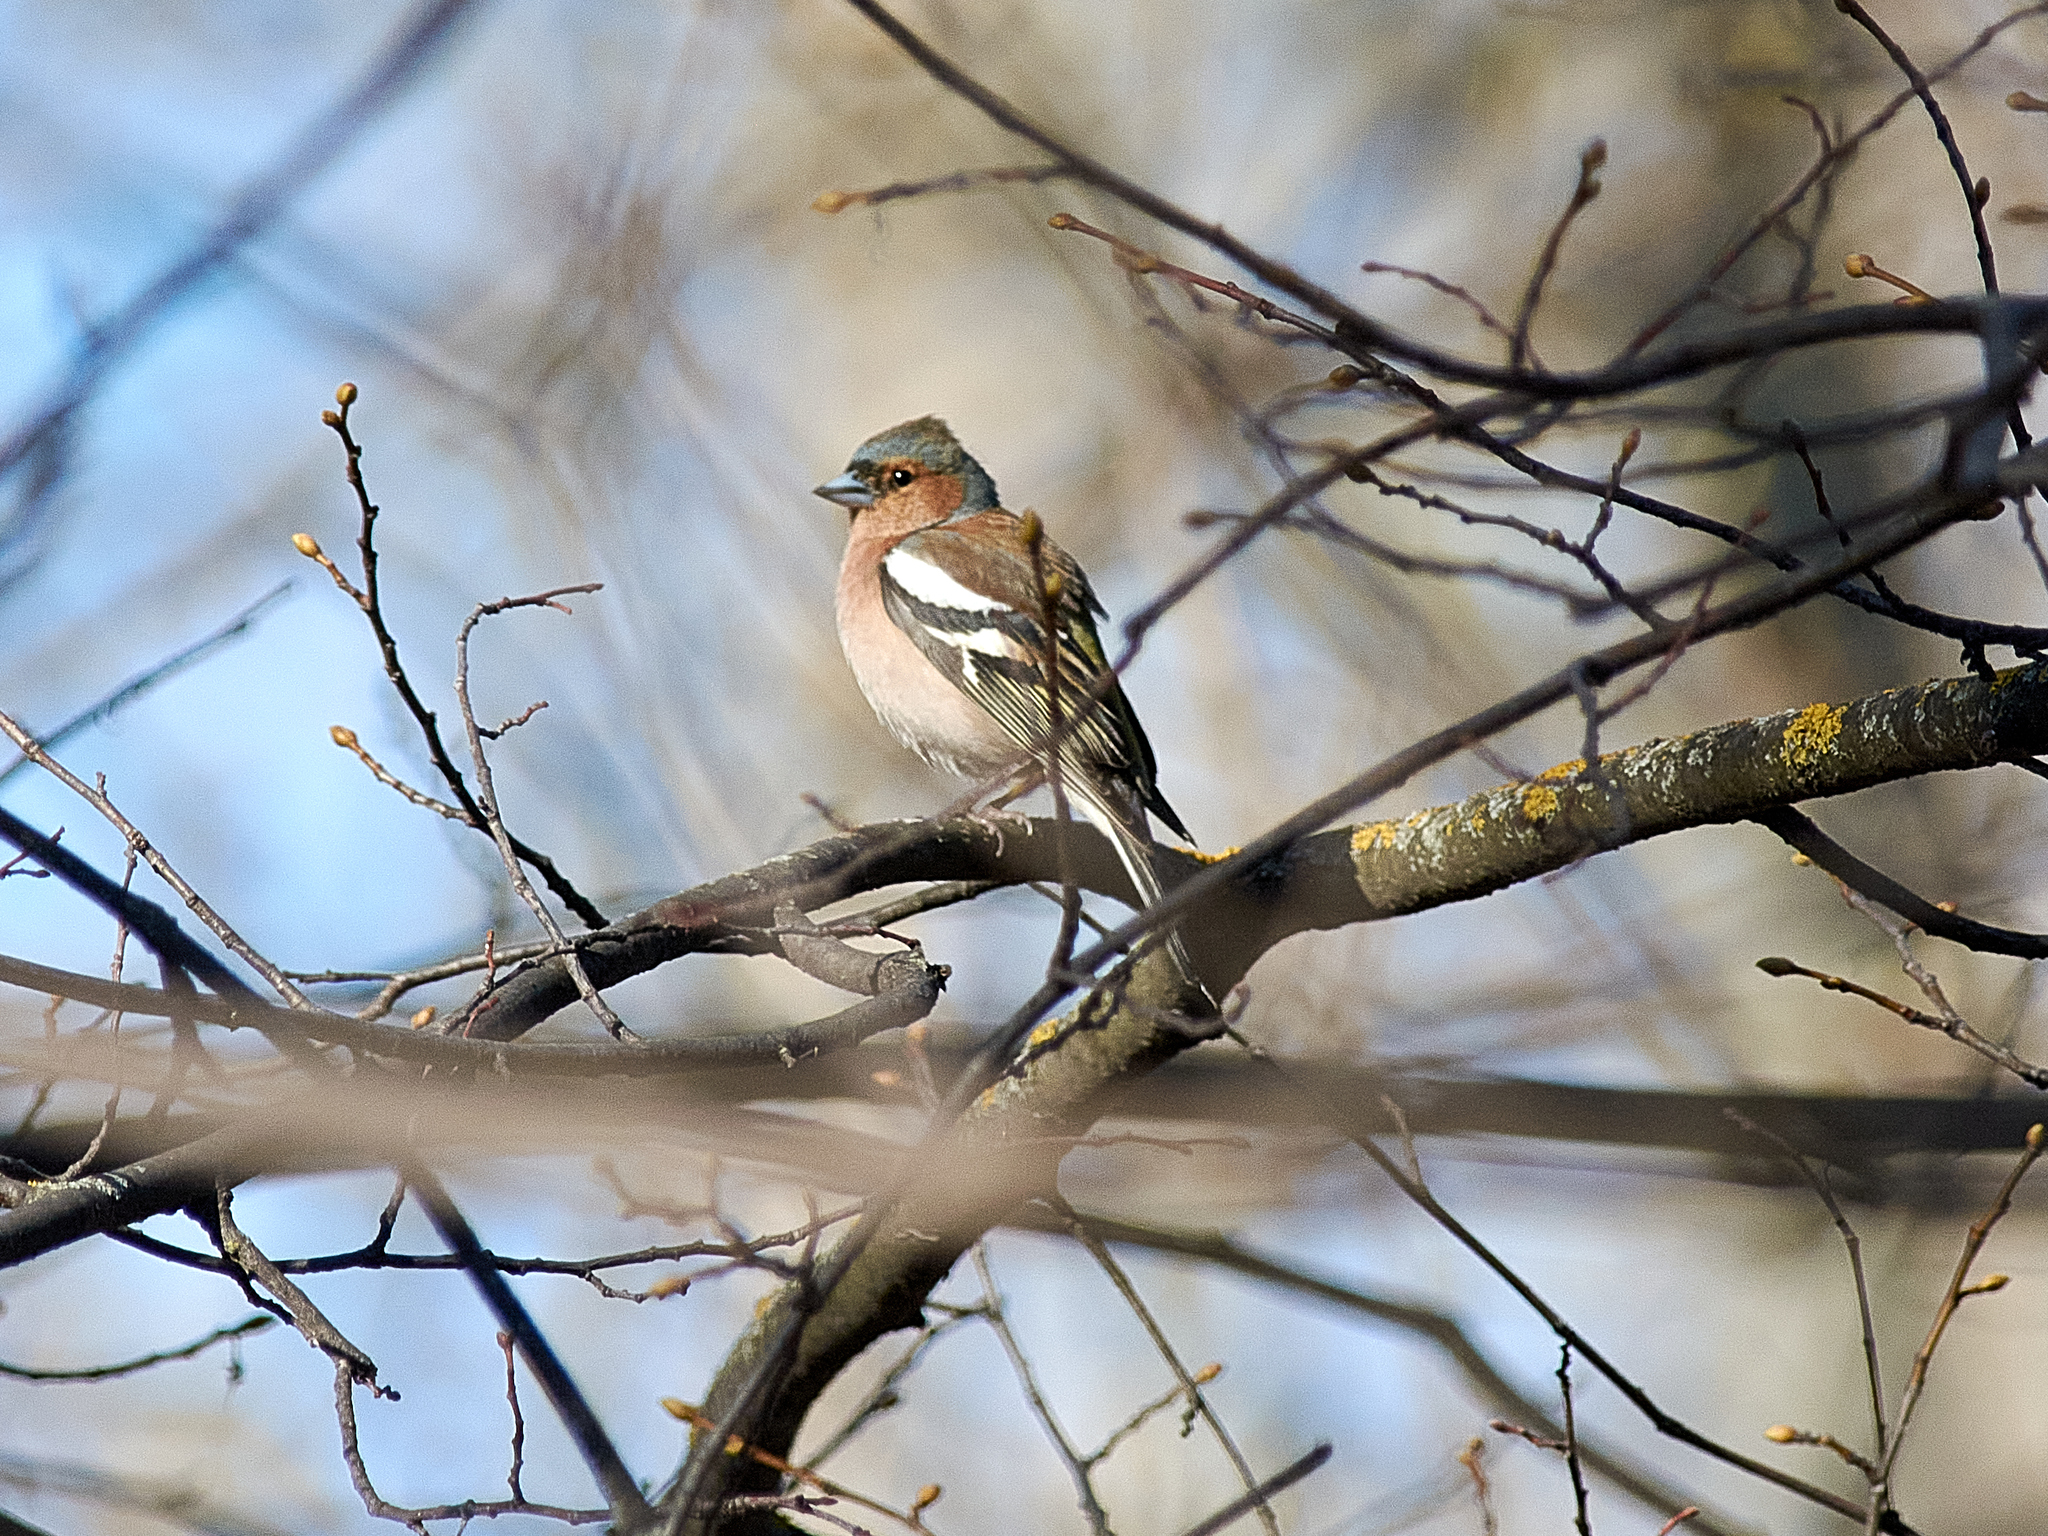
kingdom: Animalia
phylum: Chordata
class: Aves
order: Passeriformes
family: Fringillidae
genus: Fringilla
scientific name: Fringilla coelebs
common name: Common chaffinch
